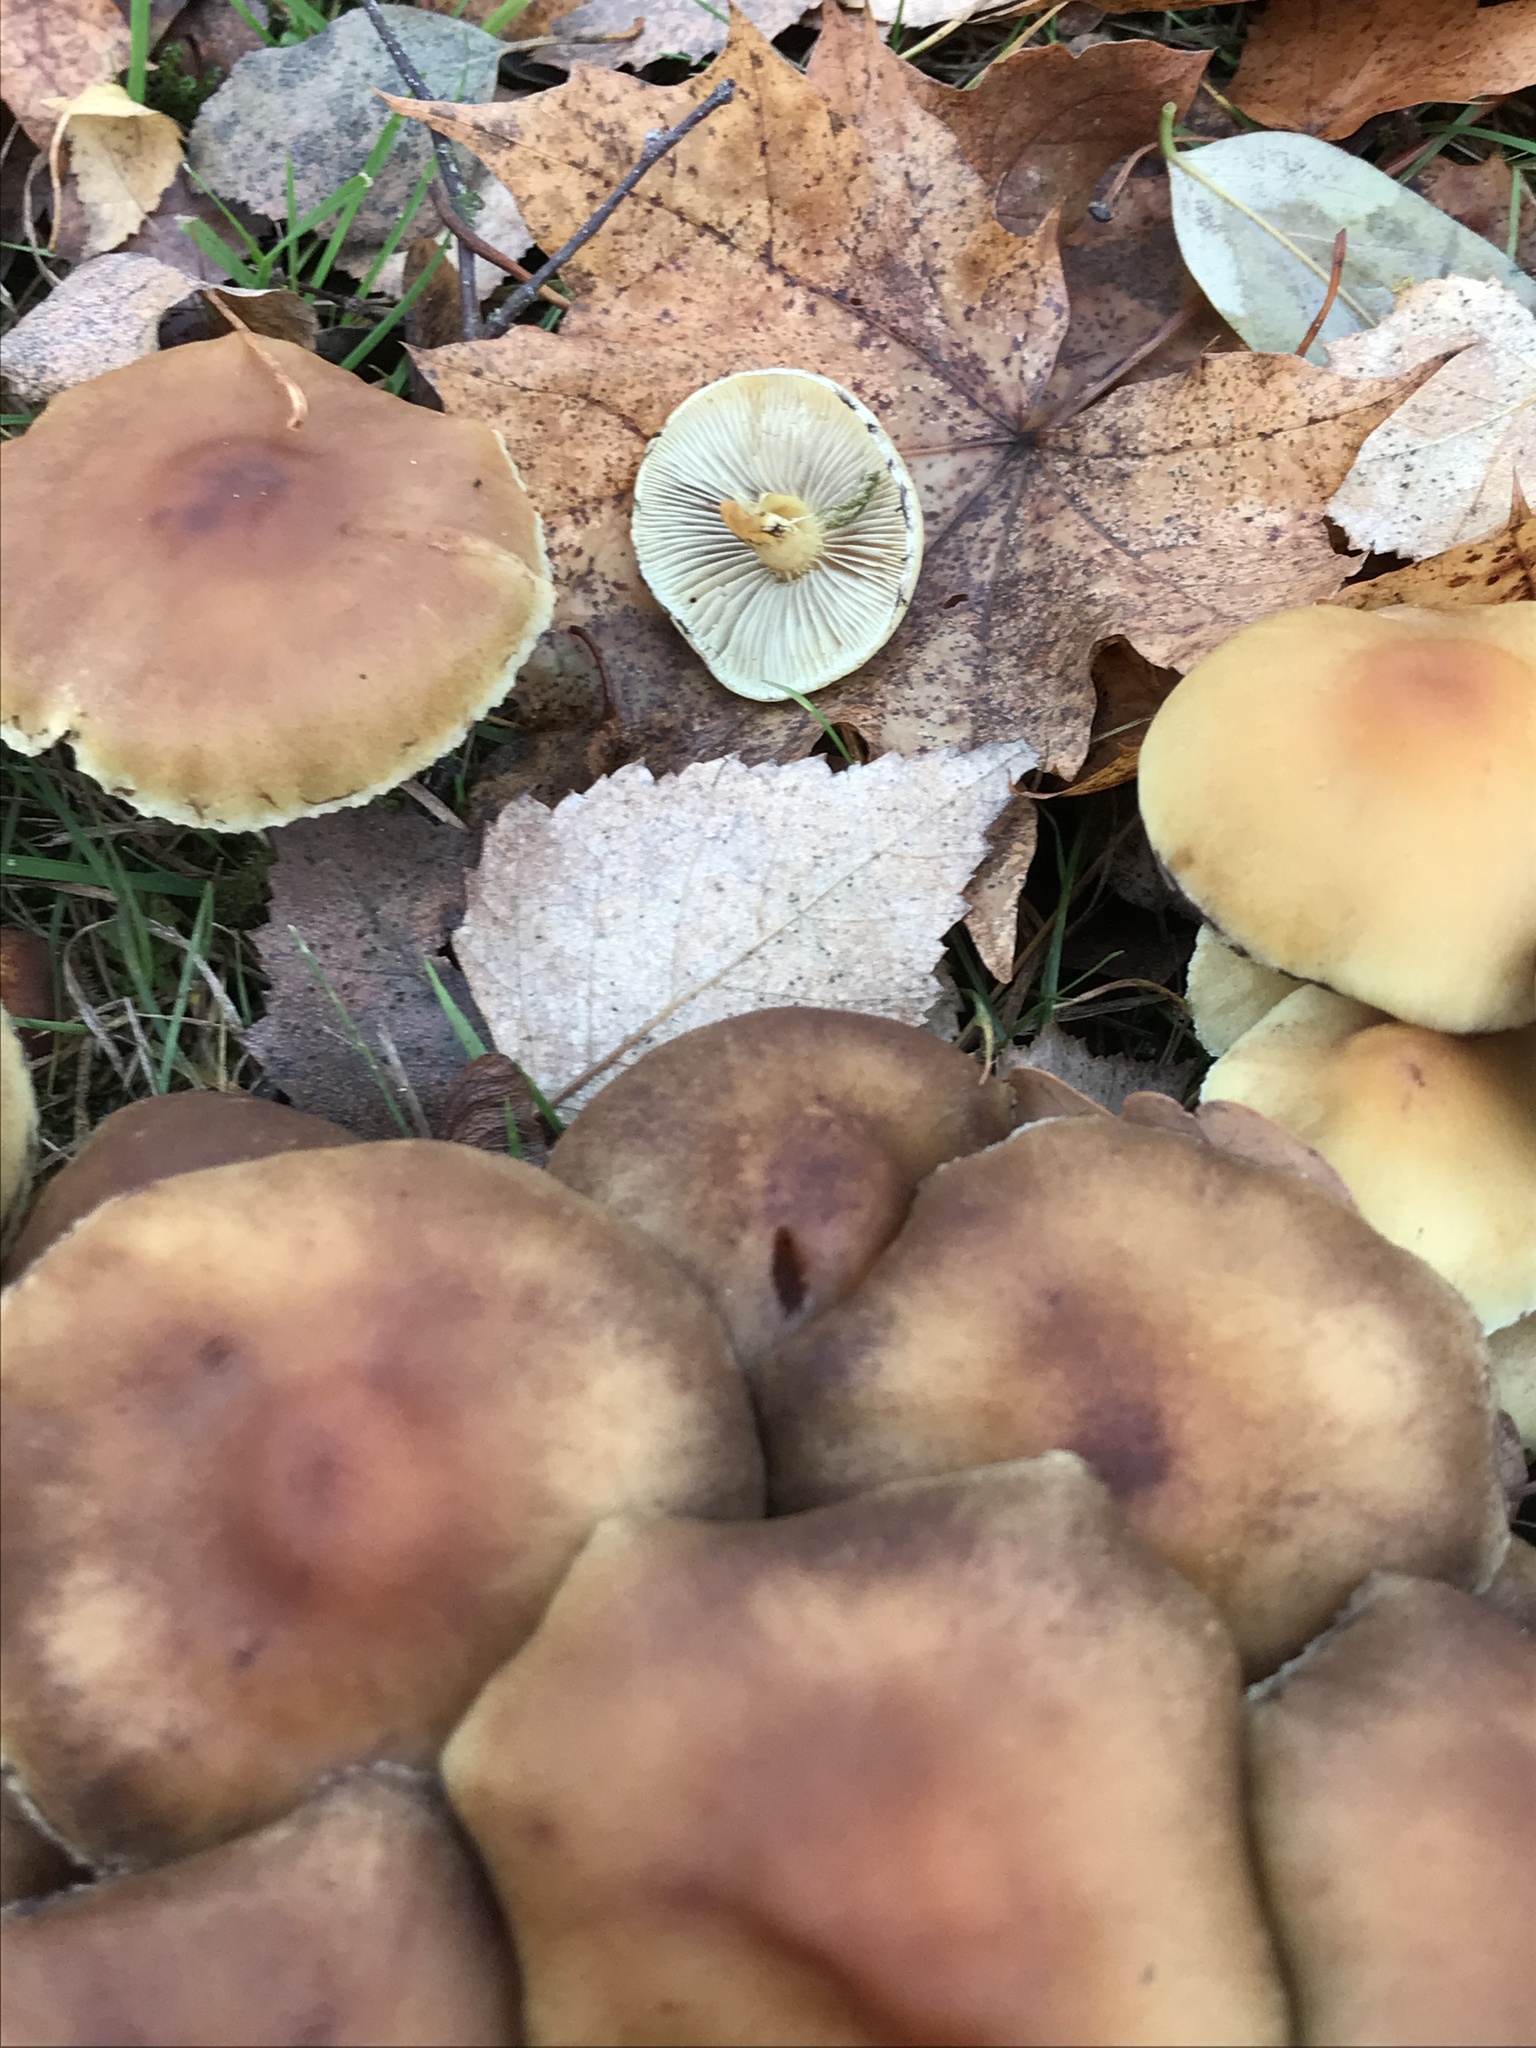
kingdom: Fungi
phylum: Basidiomycota
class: Agaricomycetes
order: Agaricales
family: Strophariaceae
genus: Hypholoma
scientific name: Hypholoma fasciculare
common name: Sulphur tuft
